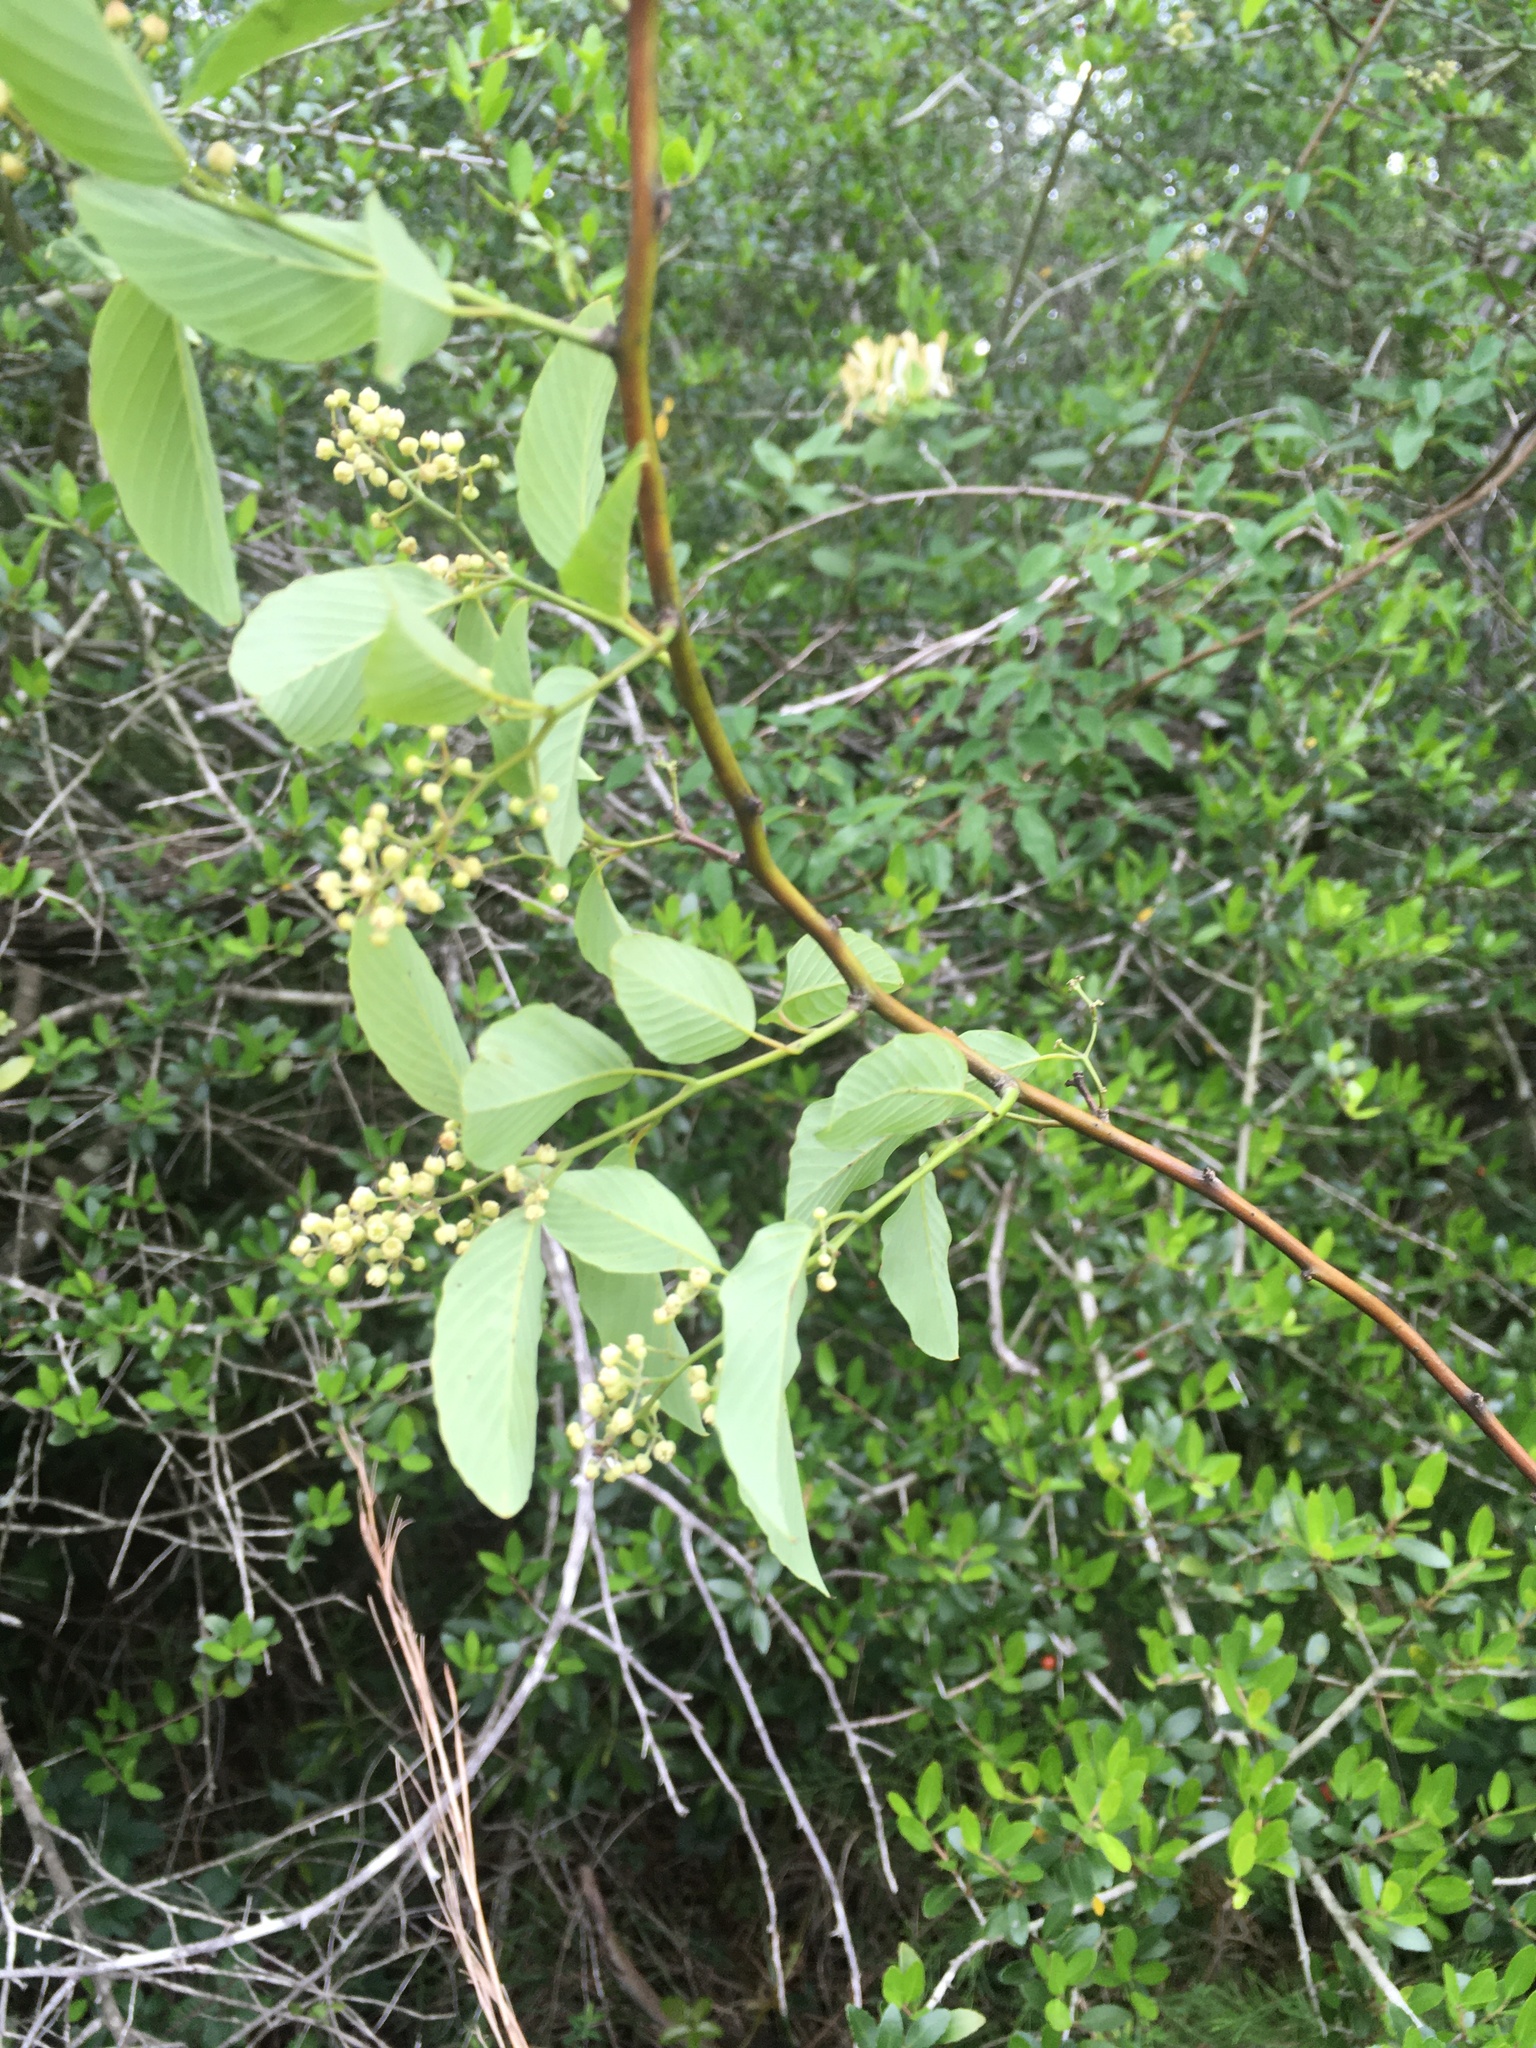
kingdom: Plantae
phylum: Tracheophyta
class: Magnoliopsida
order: Rosales
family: Rhamnaceae
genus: Berchemia
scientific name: Berchemia scandens
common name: Supplejack
